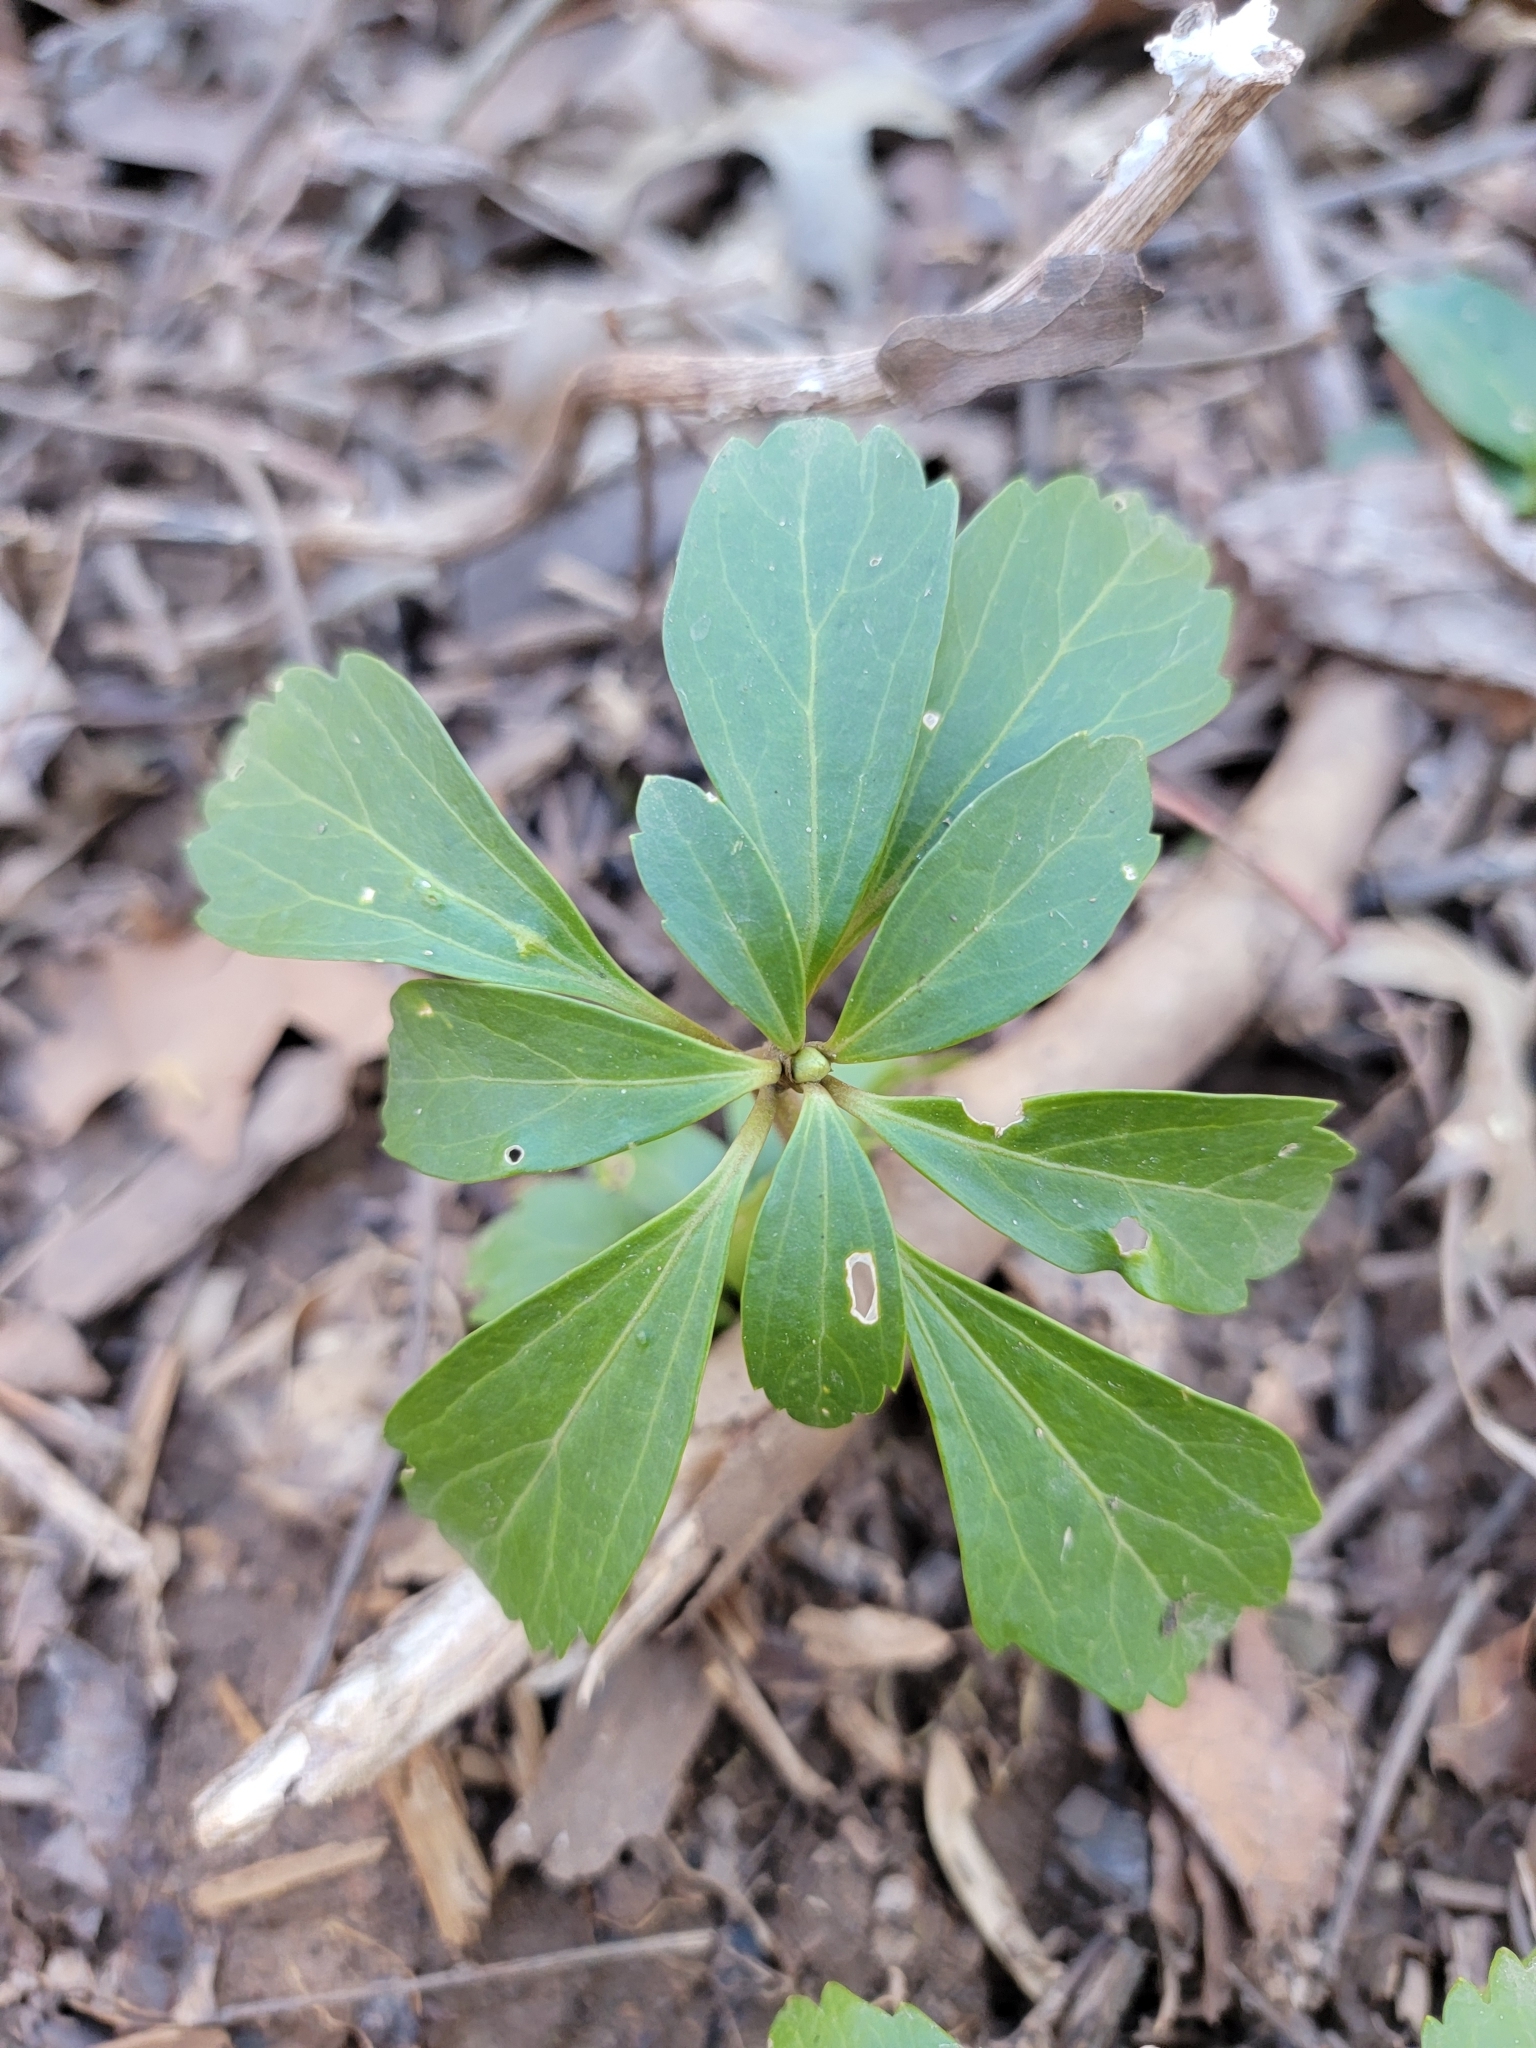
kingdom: Plantae
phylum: Tracheophyta
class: Magnoliopsida
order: Buxales
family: Buxaceae
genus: Pachysandra
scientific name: Pachysandra terminalis
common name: Japanese pachysandra
